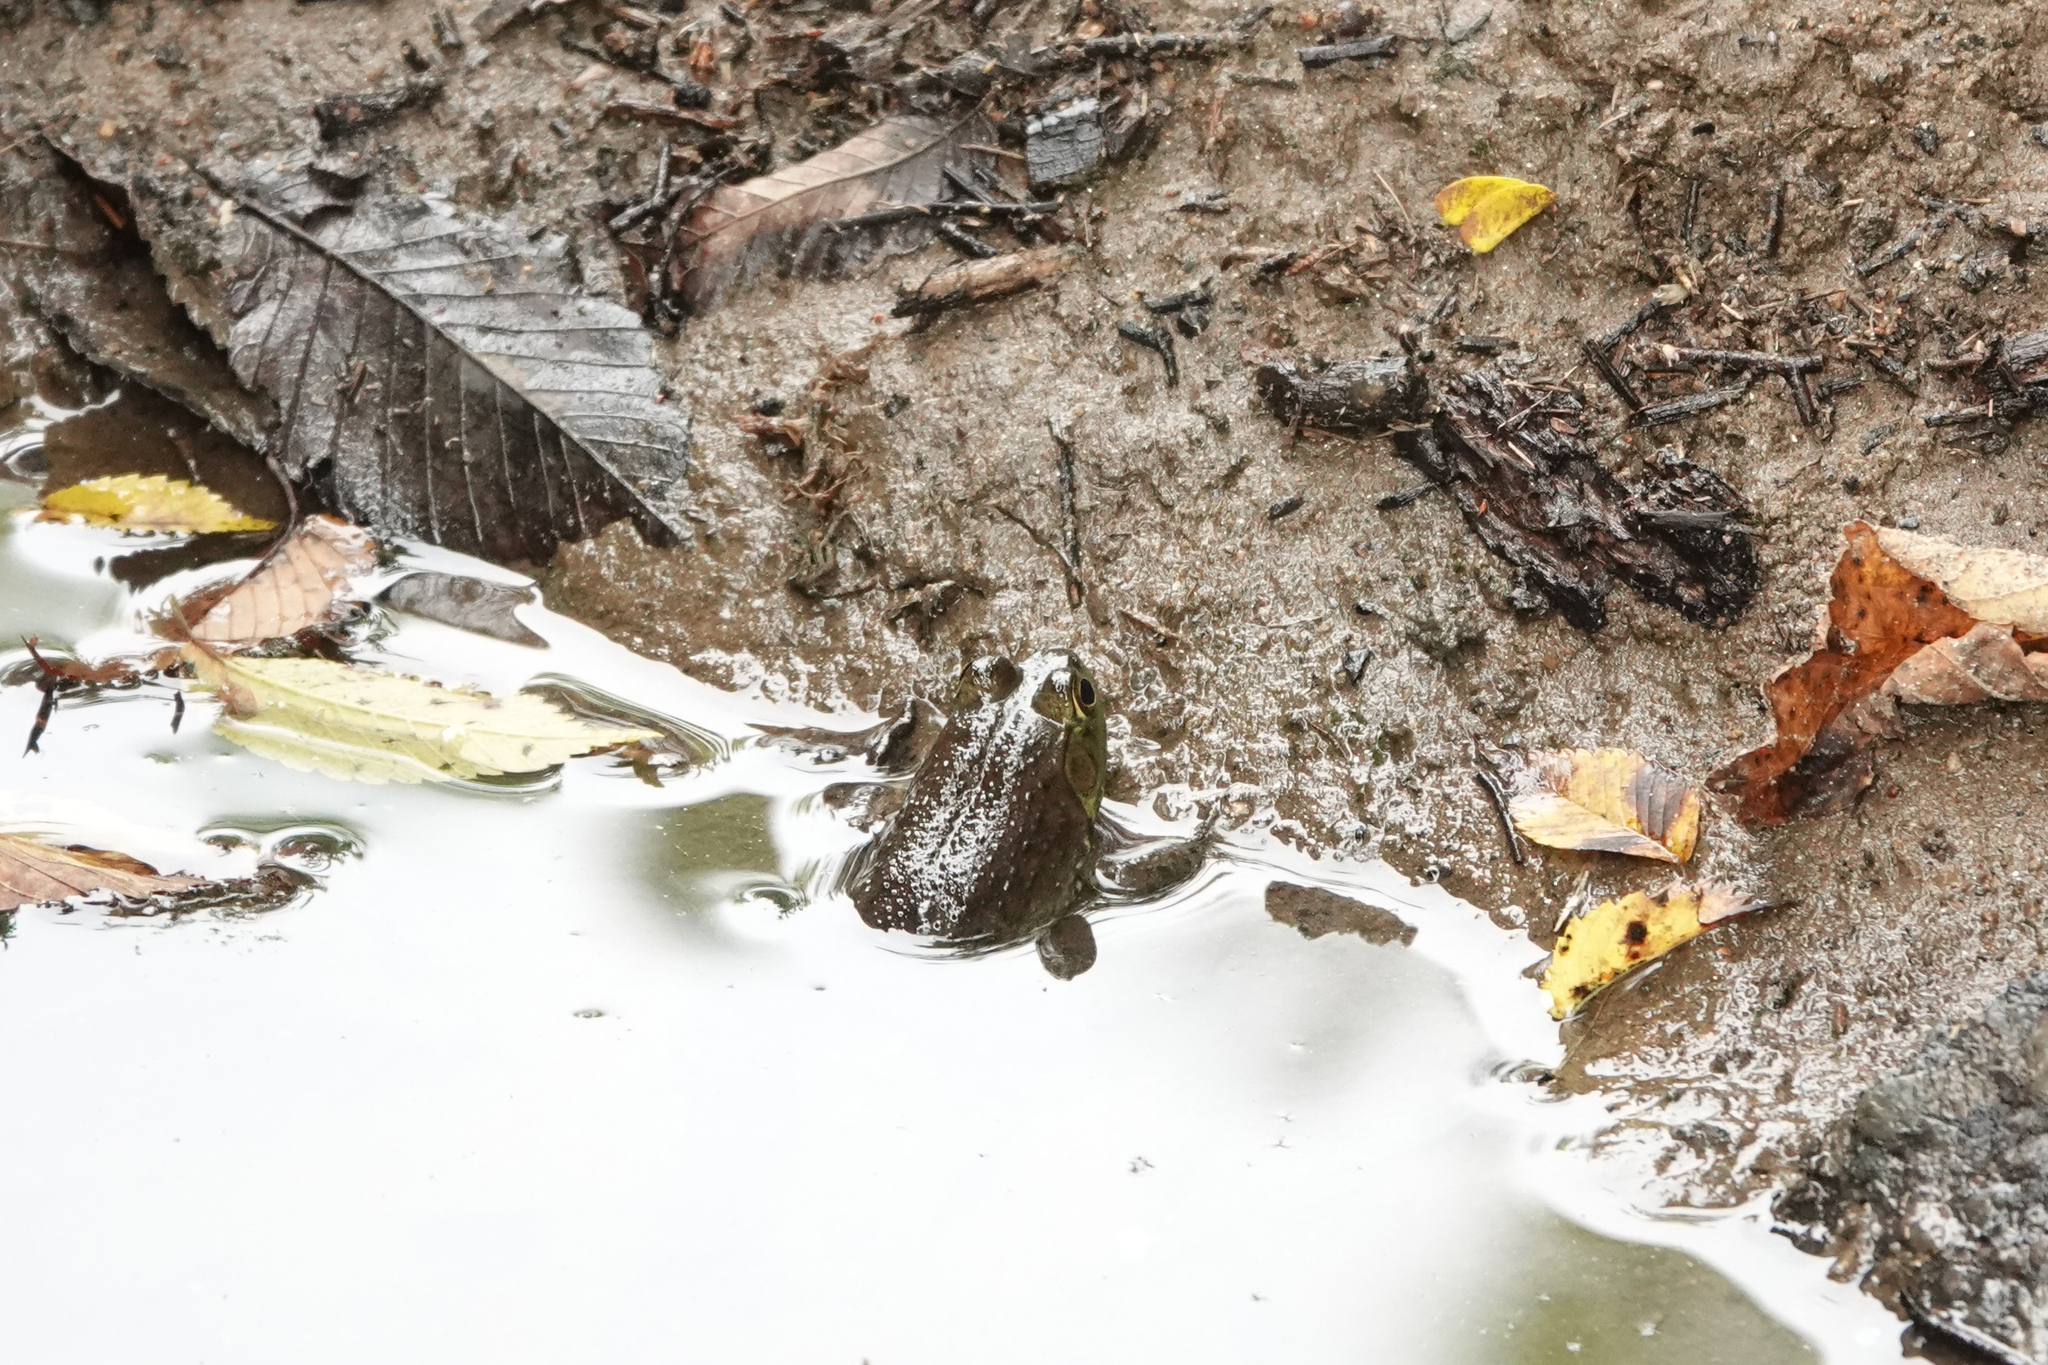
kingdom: Animalia
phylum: Chordata
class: Amphibia
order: Anura
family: Ranidae
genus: Lithobates
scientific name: Lithobates catesbeianus
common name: American bullfrog
